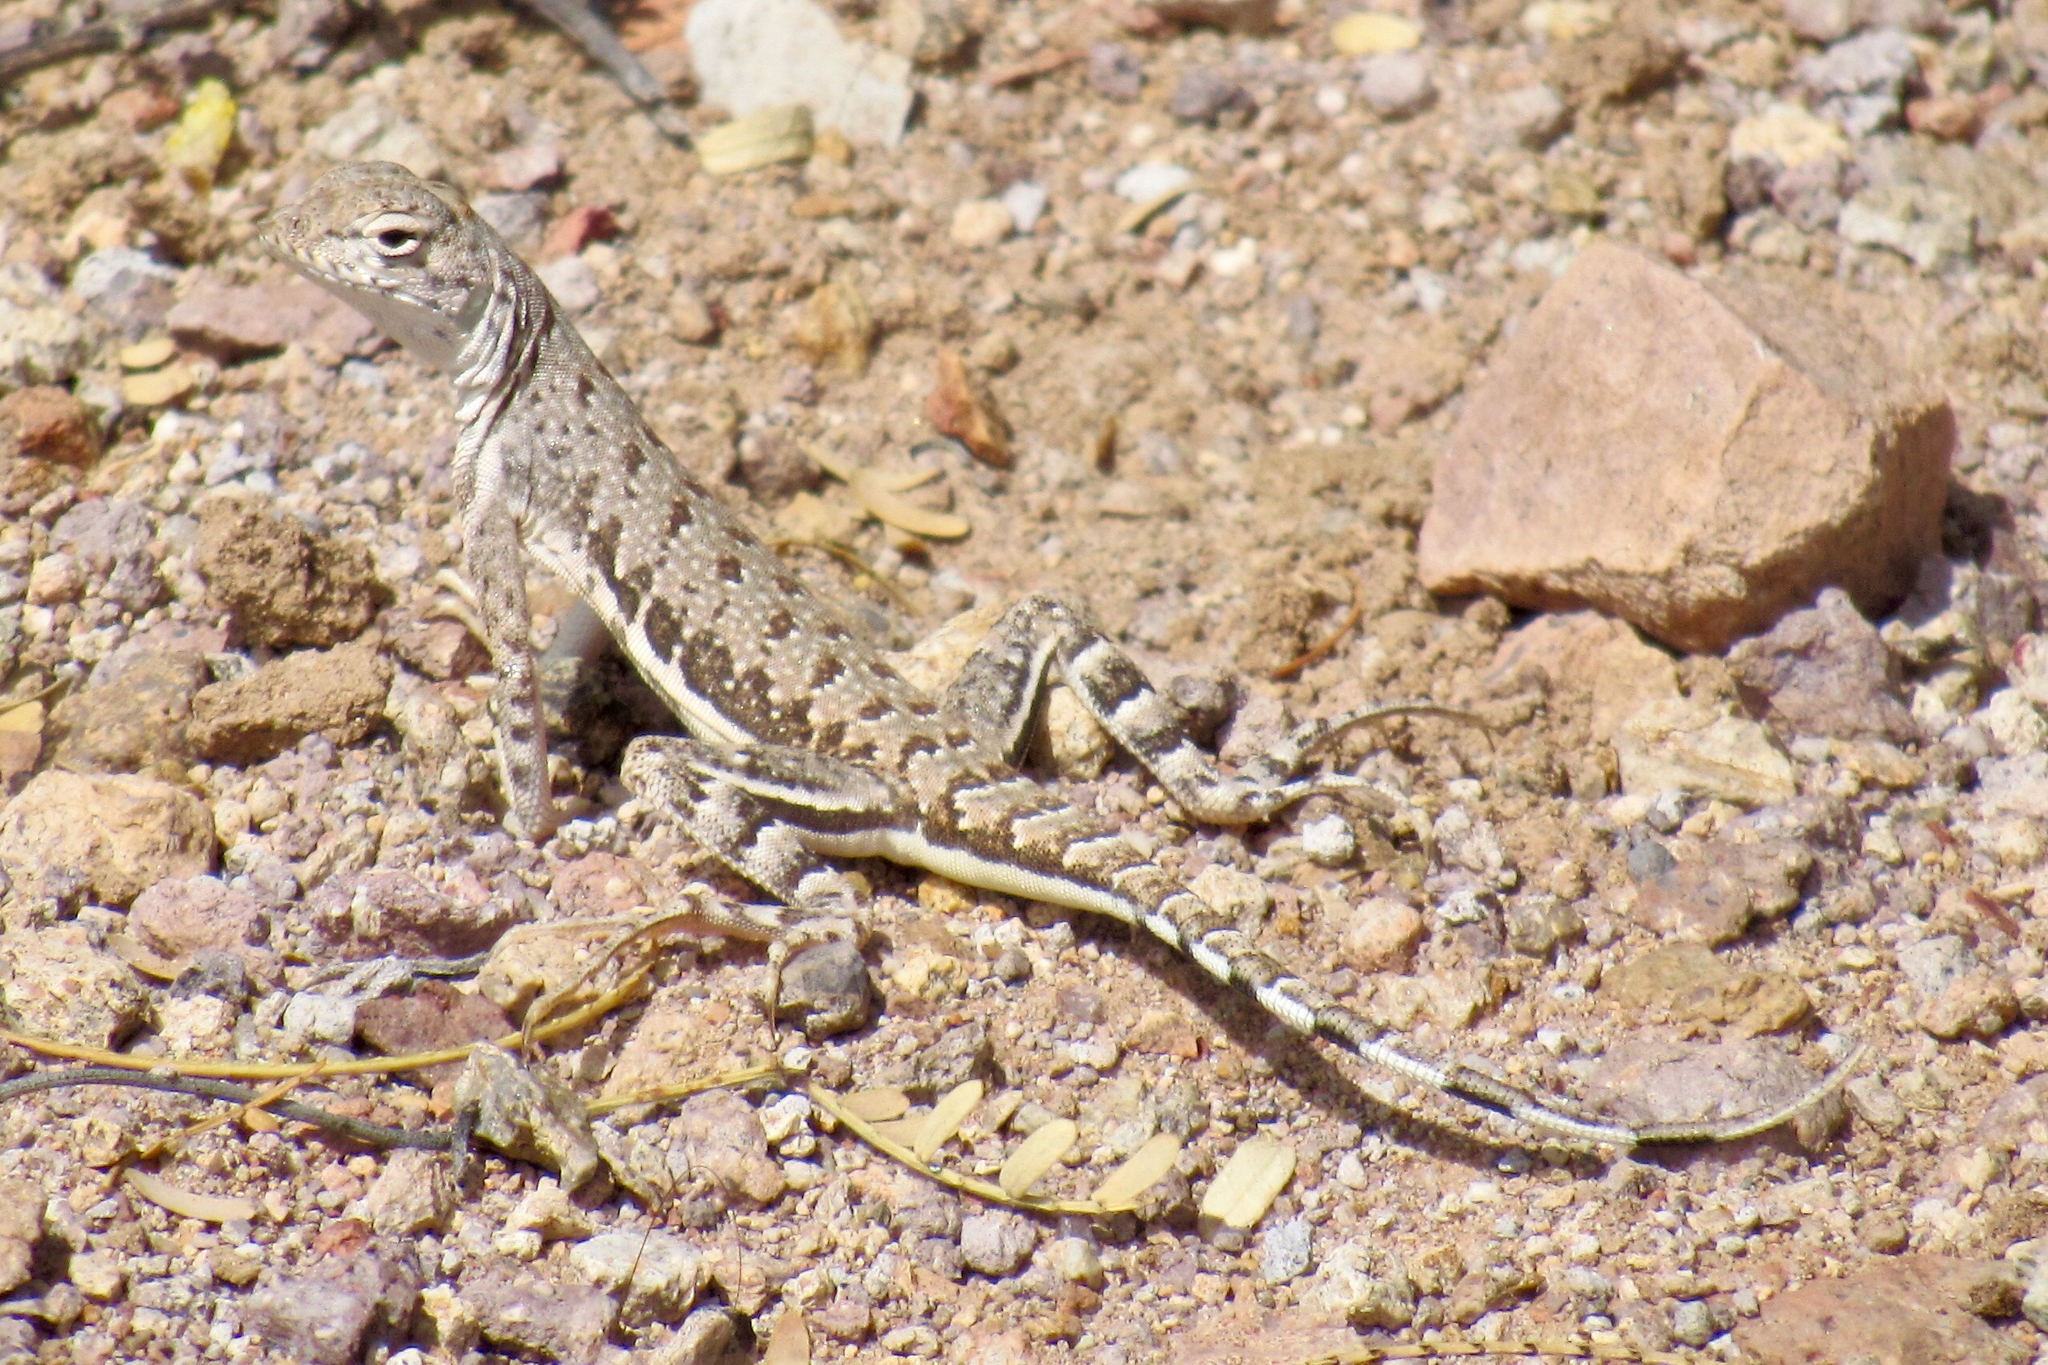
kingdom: Animalia
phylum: Chordata
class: Squamata
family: Phrynosomatidae
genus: Callisaurus
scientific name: Callisaurus draconoides
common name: Zebra-tailed lizard
